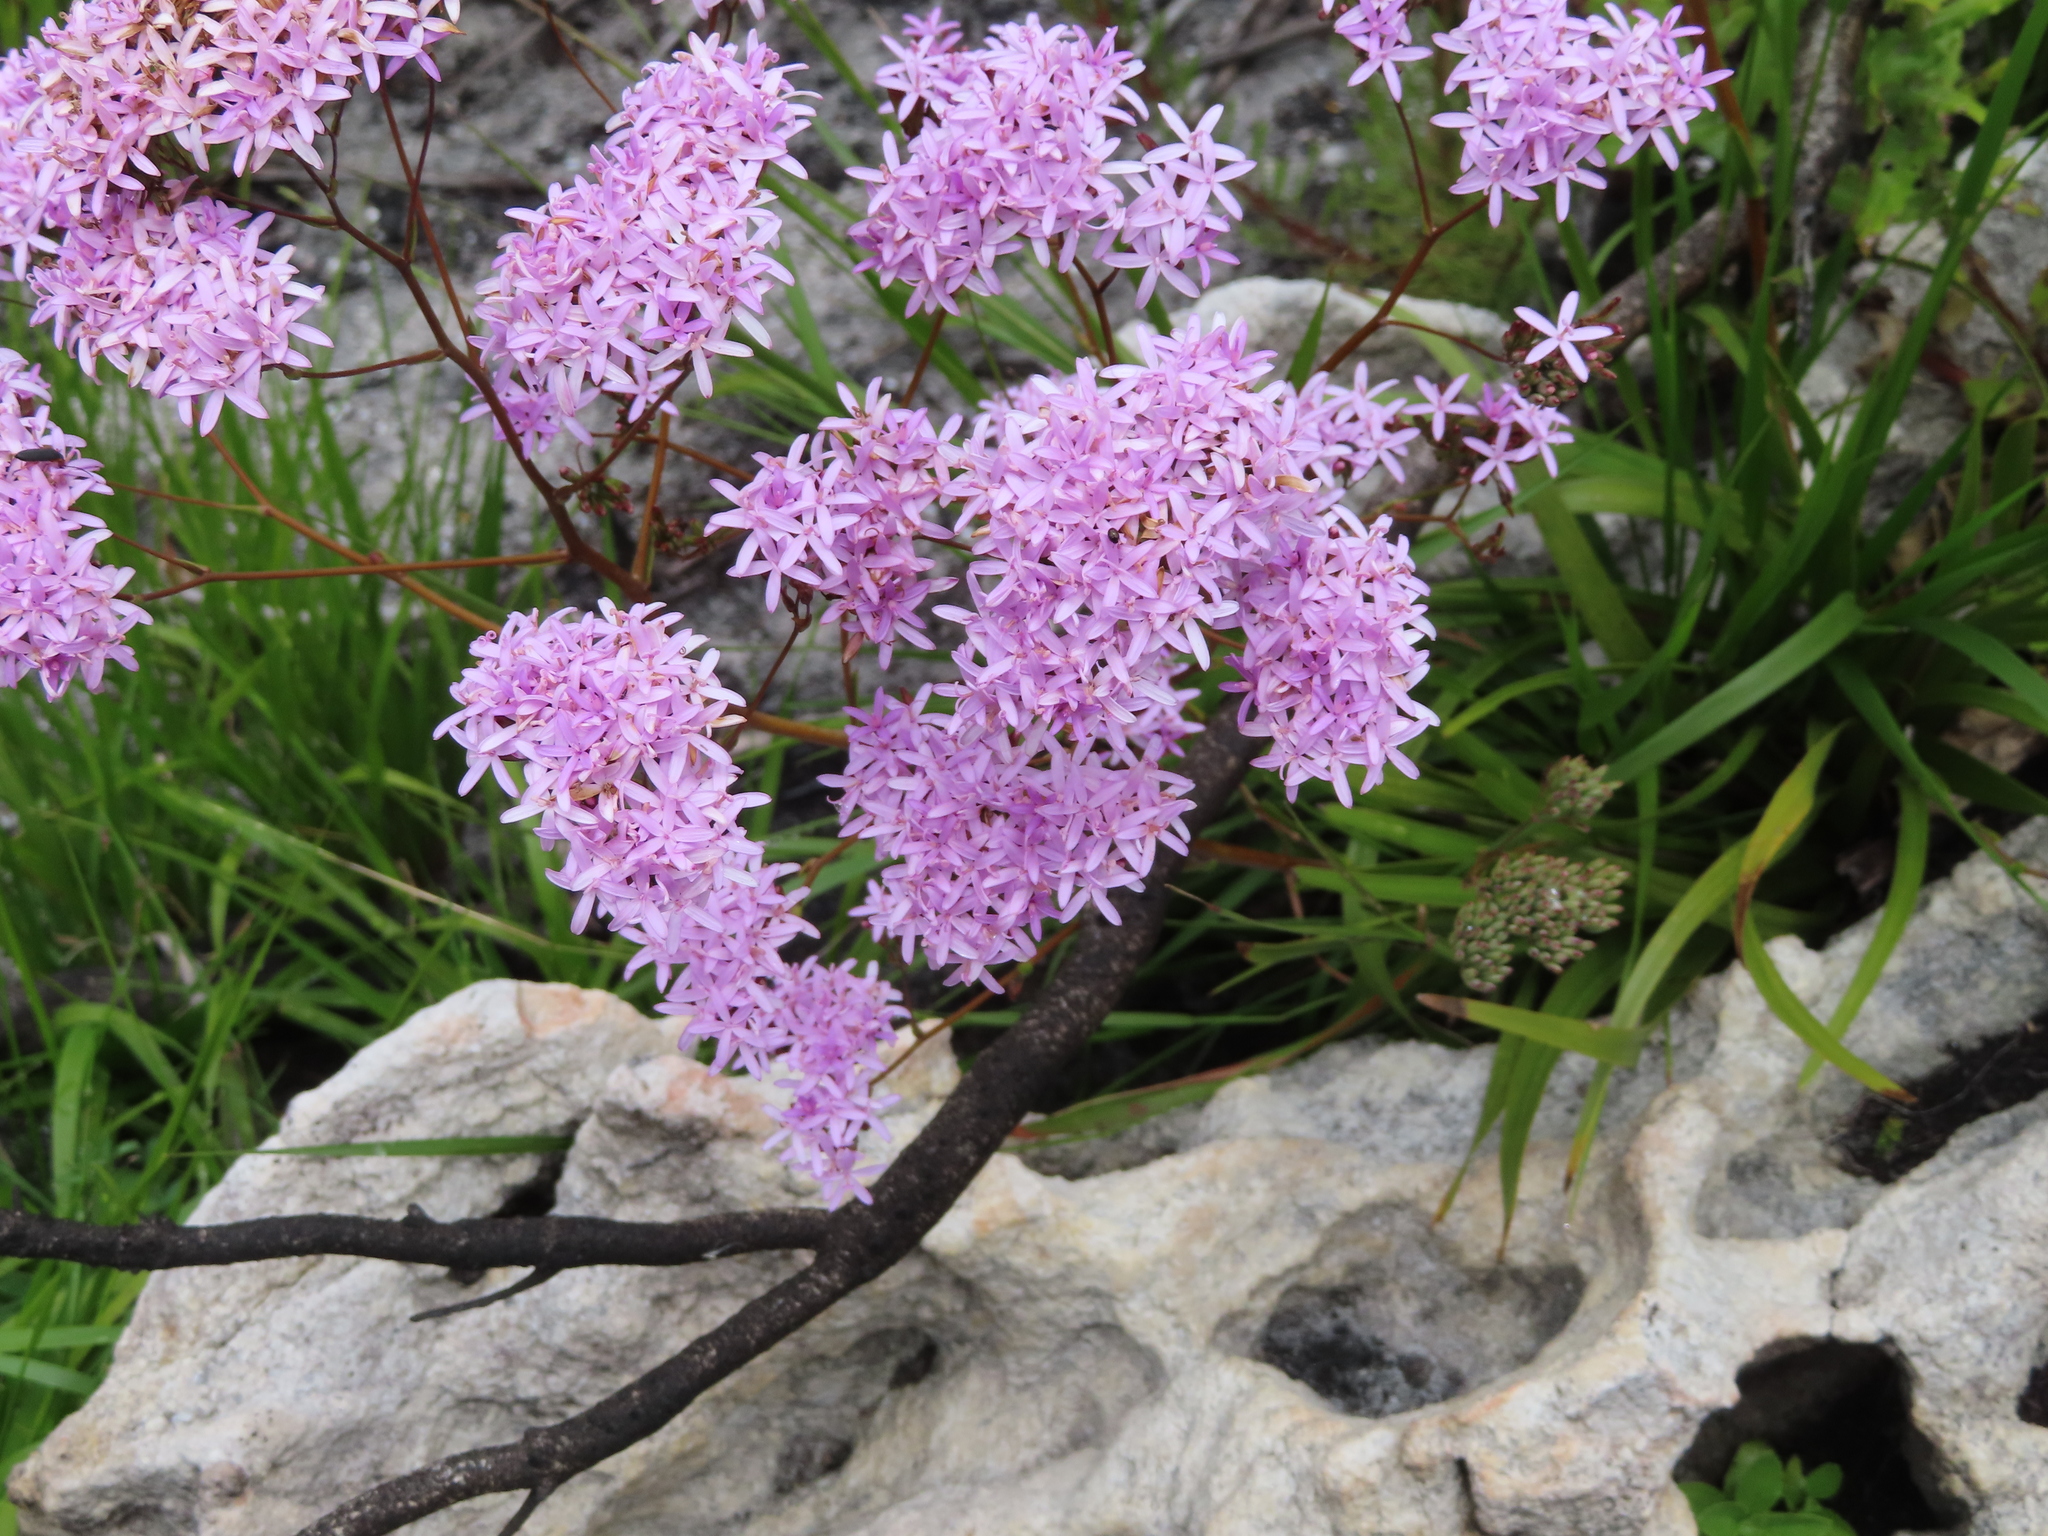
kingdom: Plantae
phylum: Tracheophyta
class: Magnoliopsida
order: Asterales
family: Asteraceae
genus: Corymbium
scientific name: Corymbium glabrum
